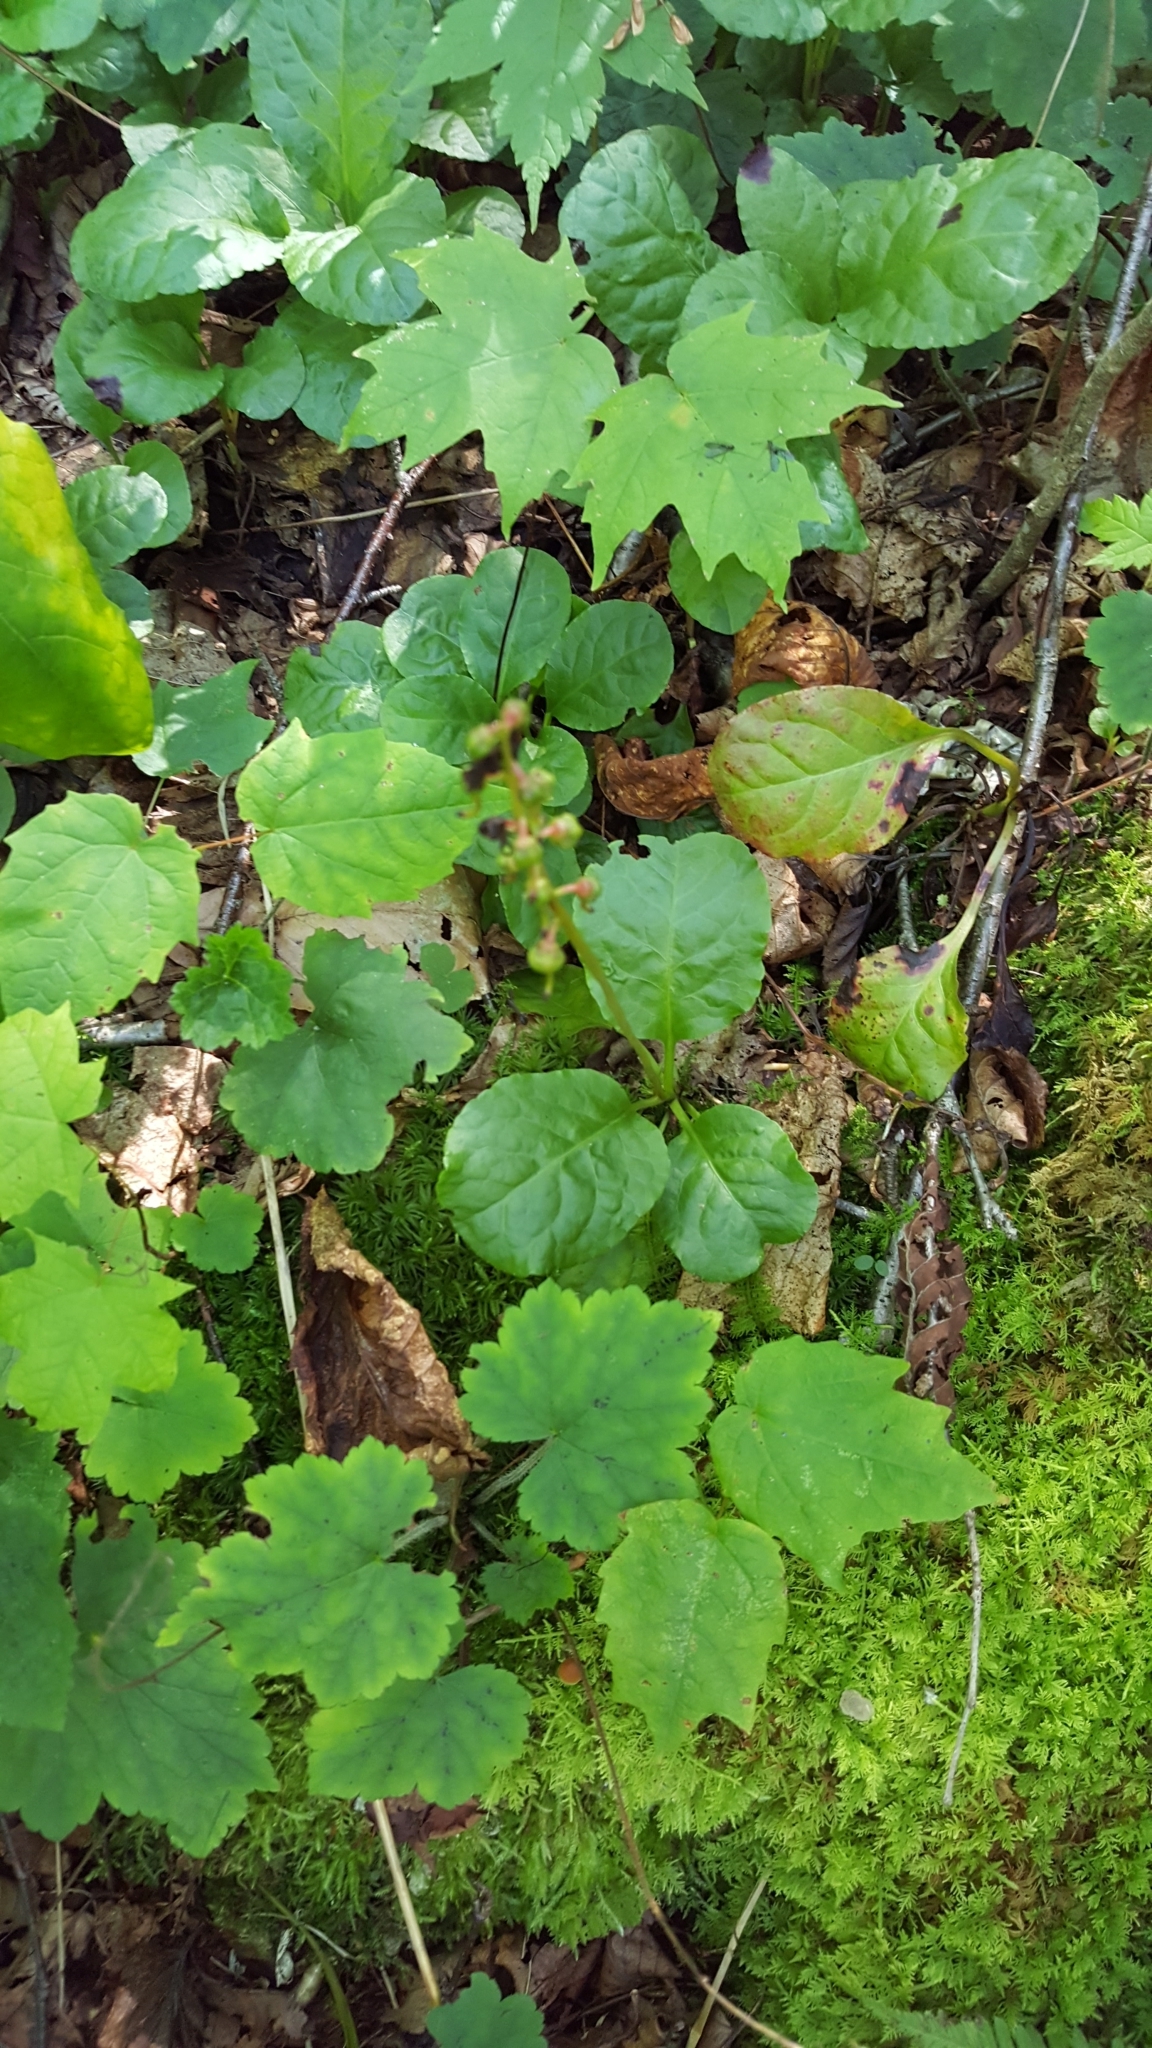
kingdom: Plantae
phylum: Tracheophyta
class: Magnoliopsida
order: Ericales
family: Ericaceae
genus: Pyrola
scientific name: Pyrola elliptica
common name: Shinleaf
